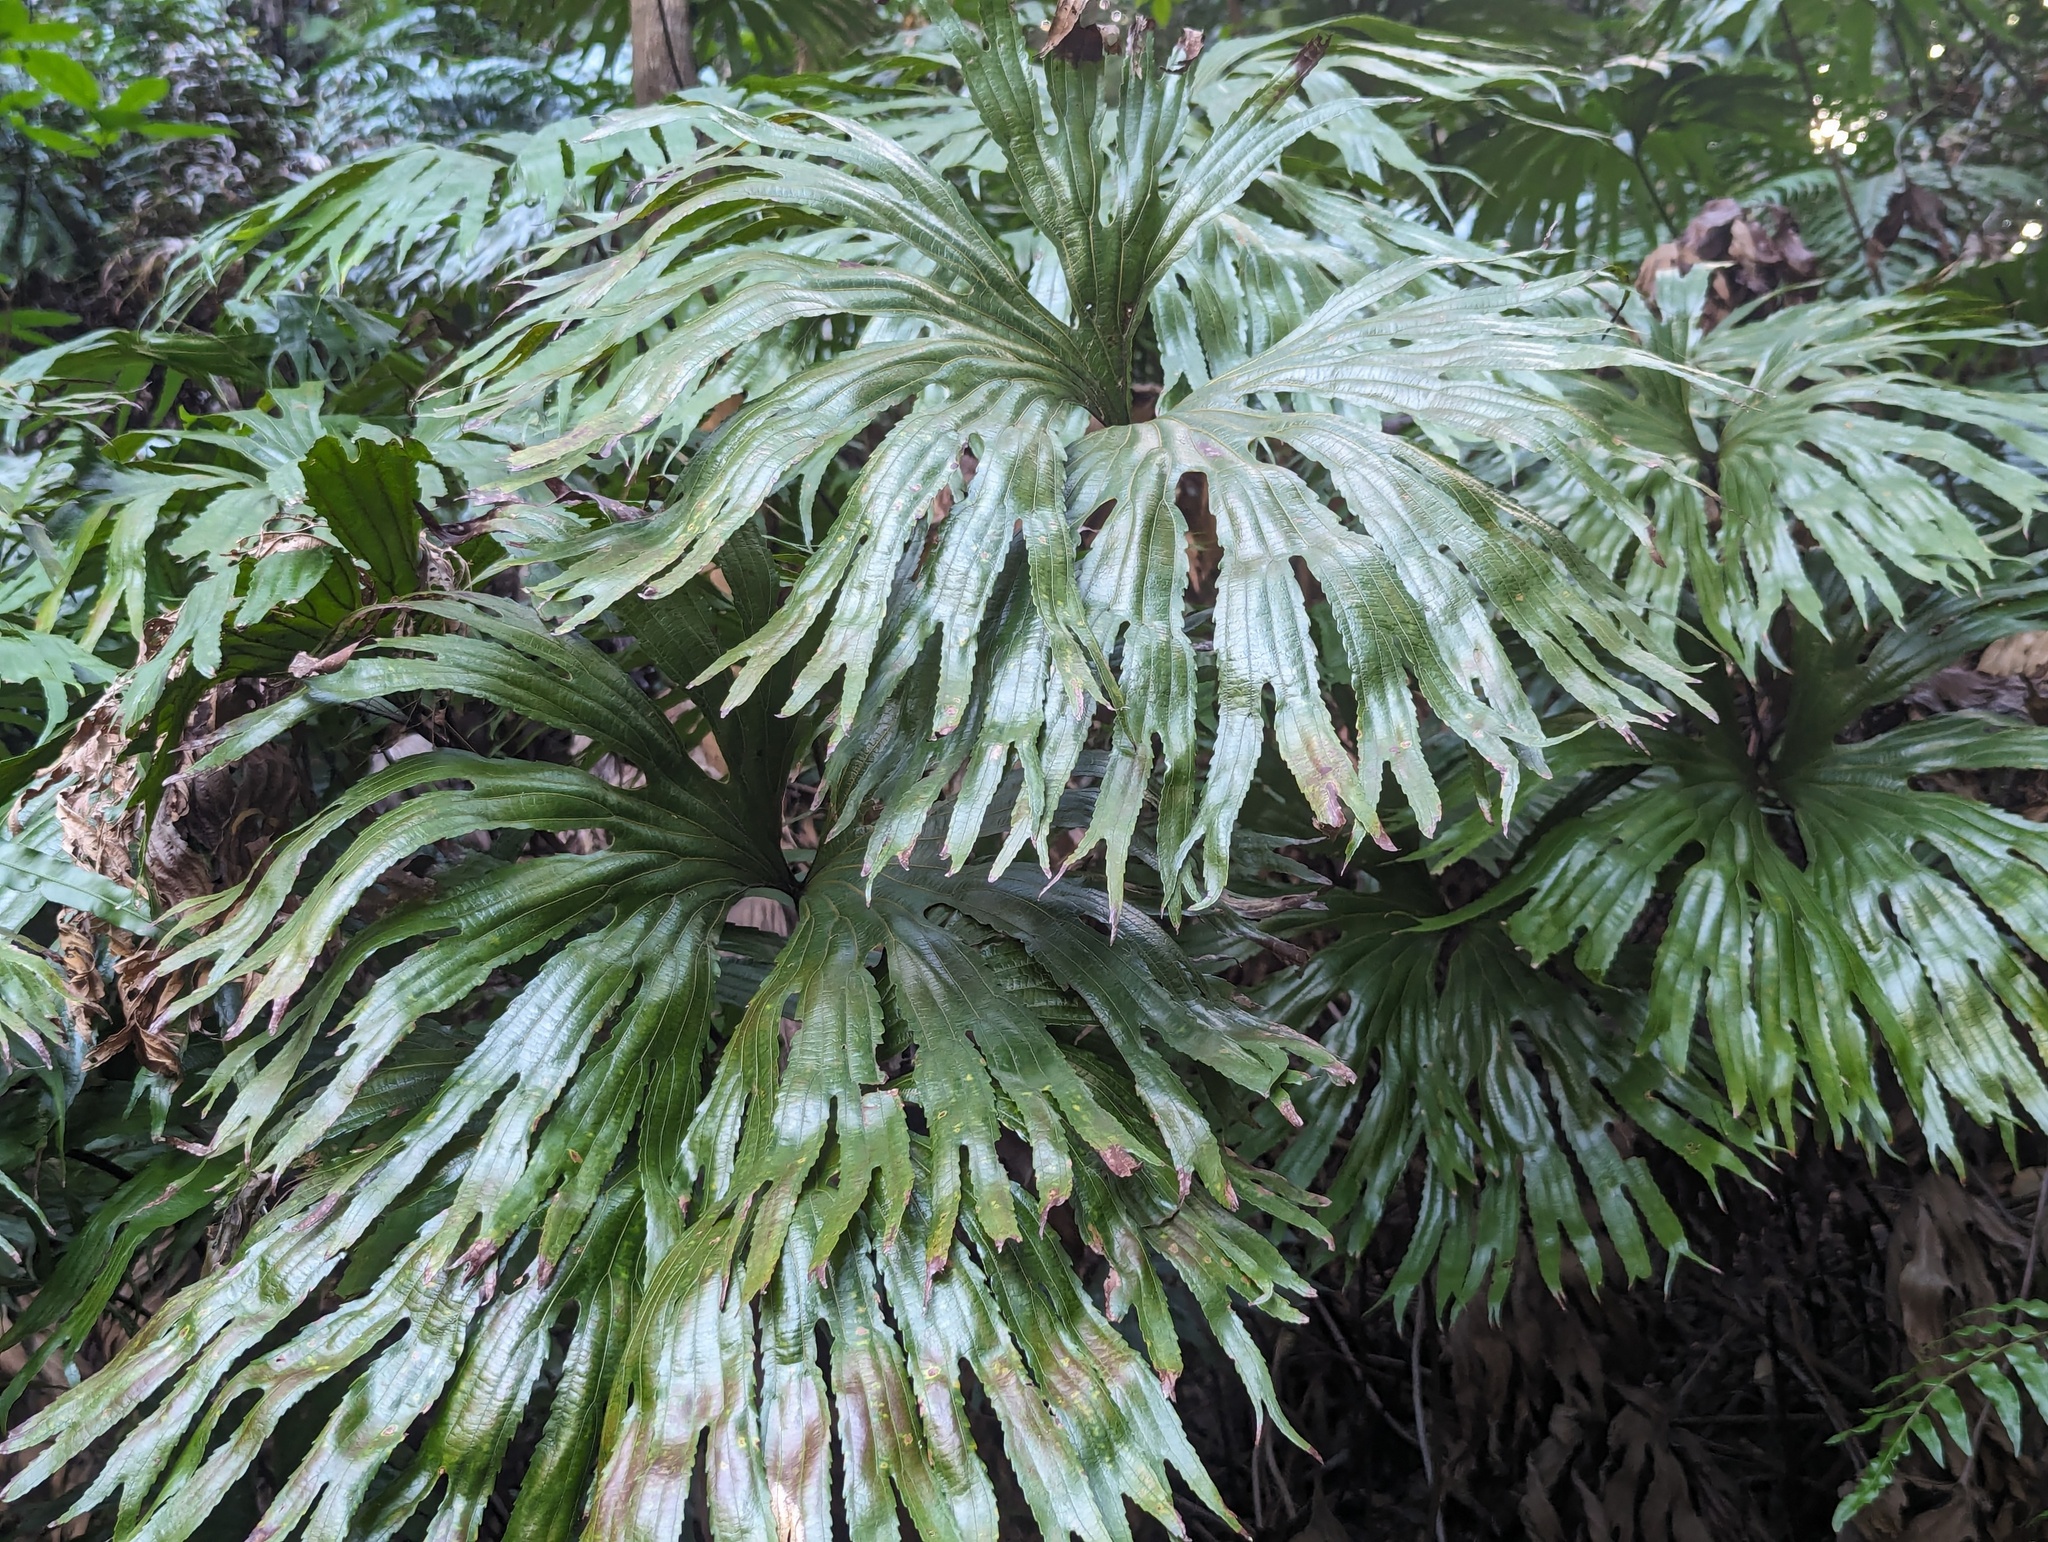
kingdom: Plantae
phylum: Tracheophyta
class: Polypodiopsida
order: Gleicheniales
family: Dipteridaceae
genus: Dipteris
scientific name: Dipteris conjugata
